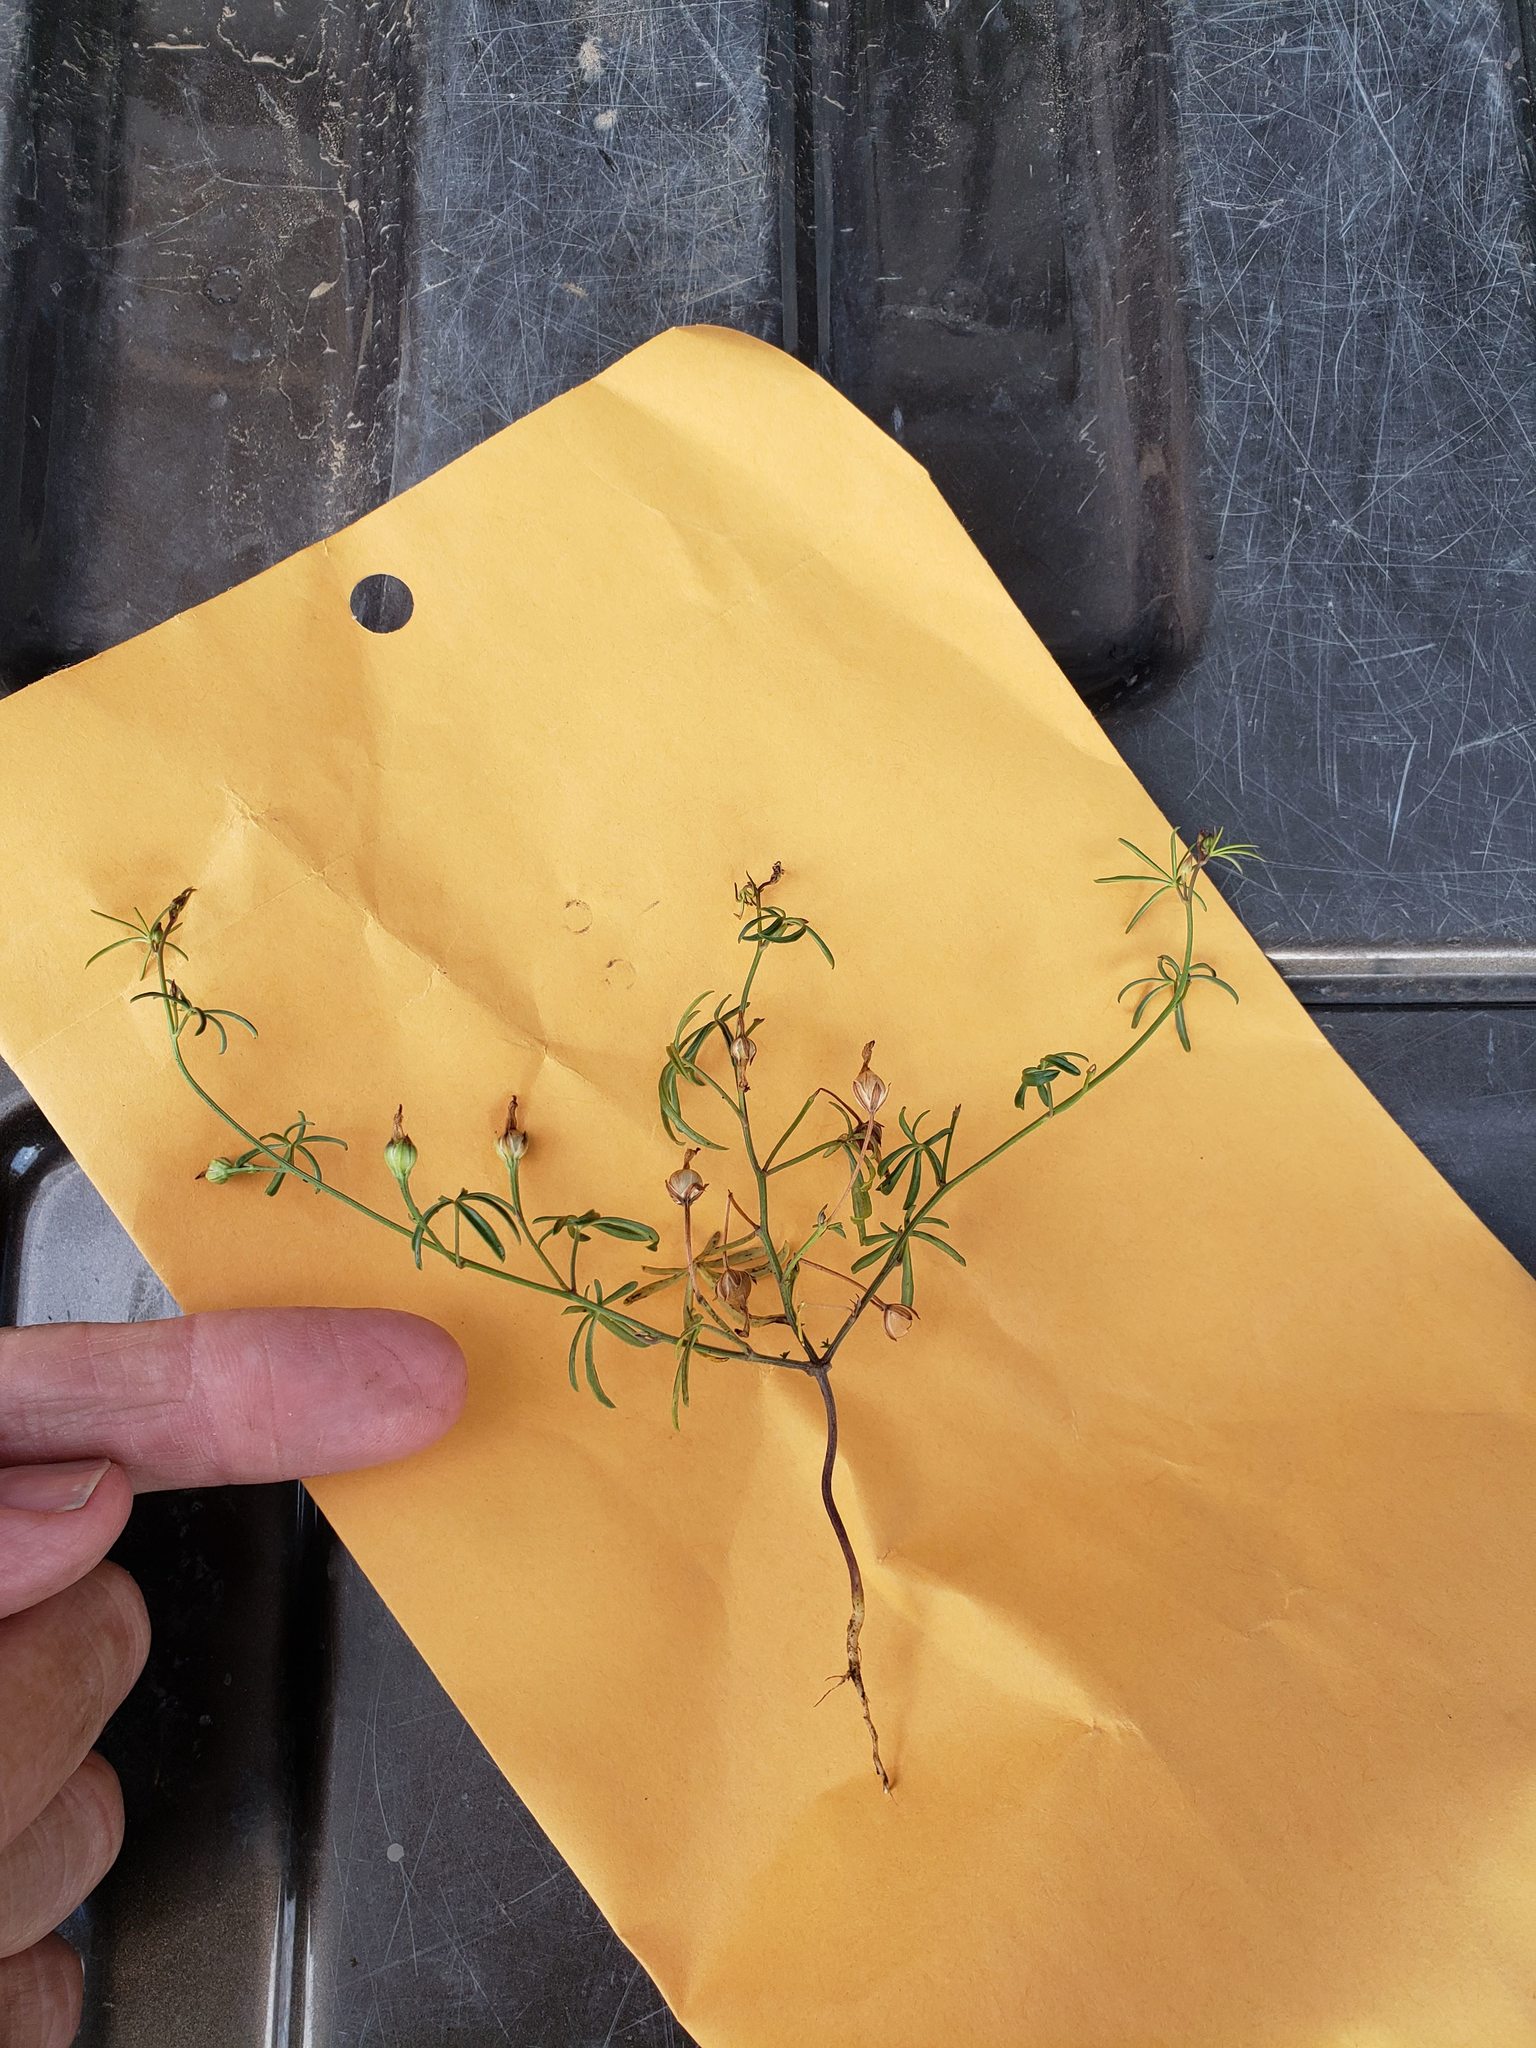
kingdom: Plantae
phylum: Tracheophyta
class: Magnoliopsida
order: Solanales
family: Convolvulaceae
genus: Ipomoea
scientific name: Ipomoea costellata
